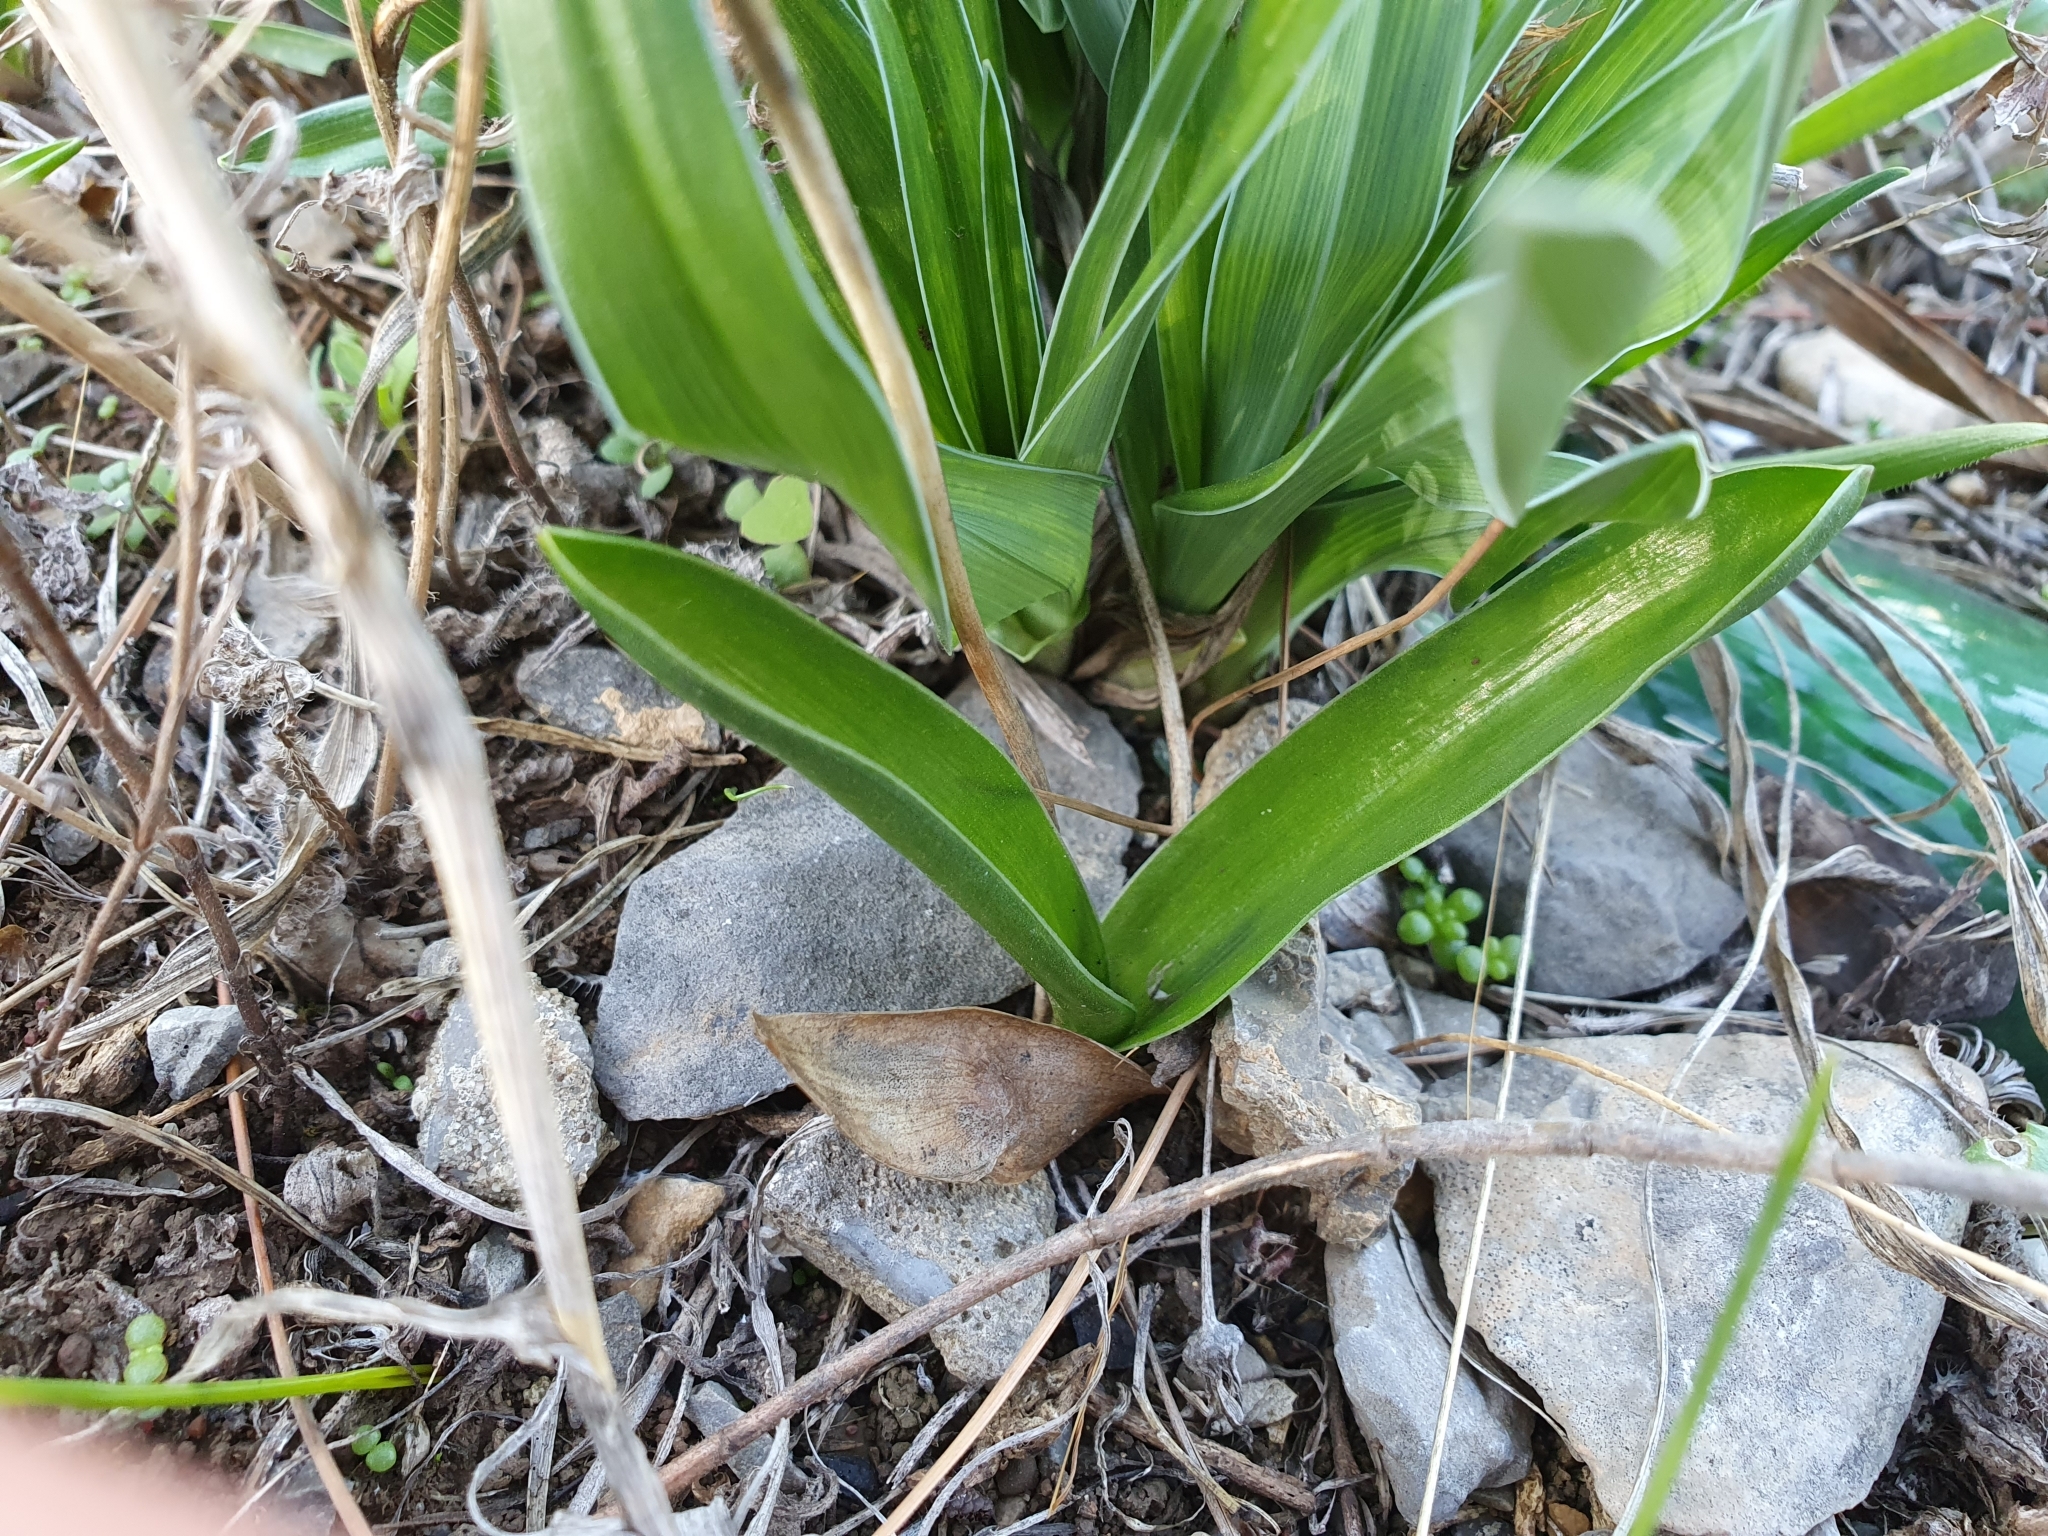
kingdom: Plantae
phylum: Tracheophyta
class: Liliopsida
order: Asparagales
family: Asparagaceae
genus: Prospero
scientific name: Prospero obtusifolium
